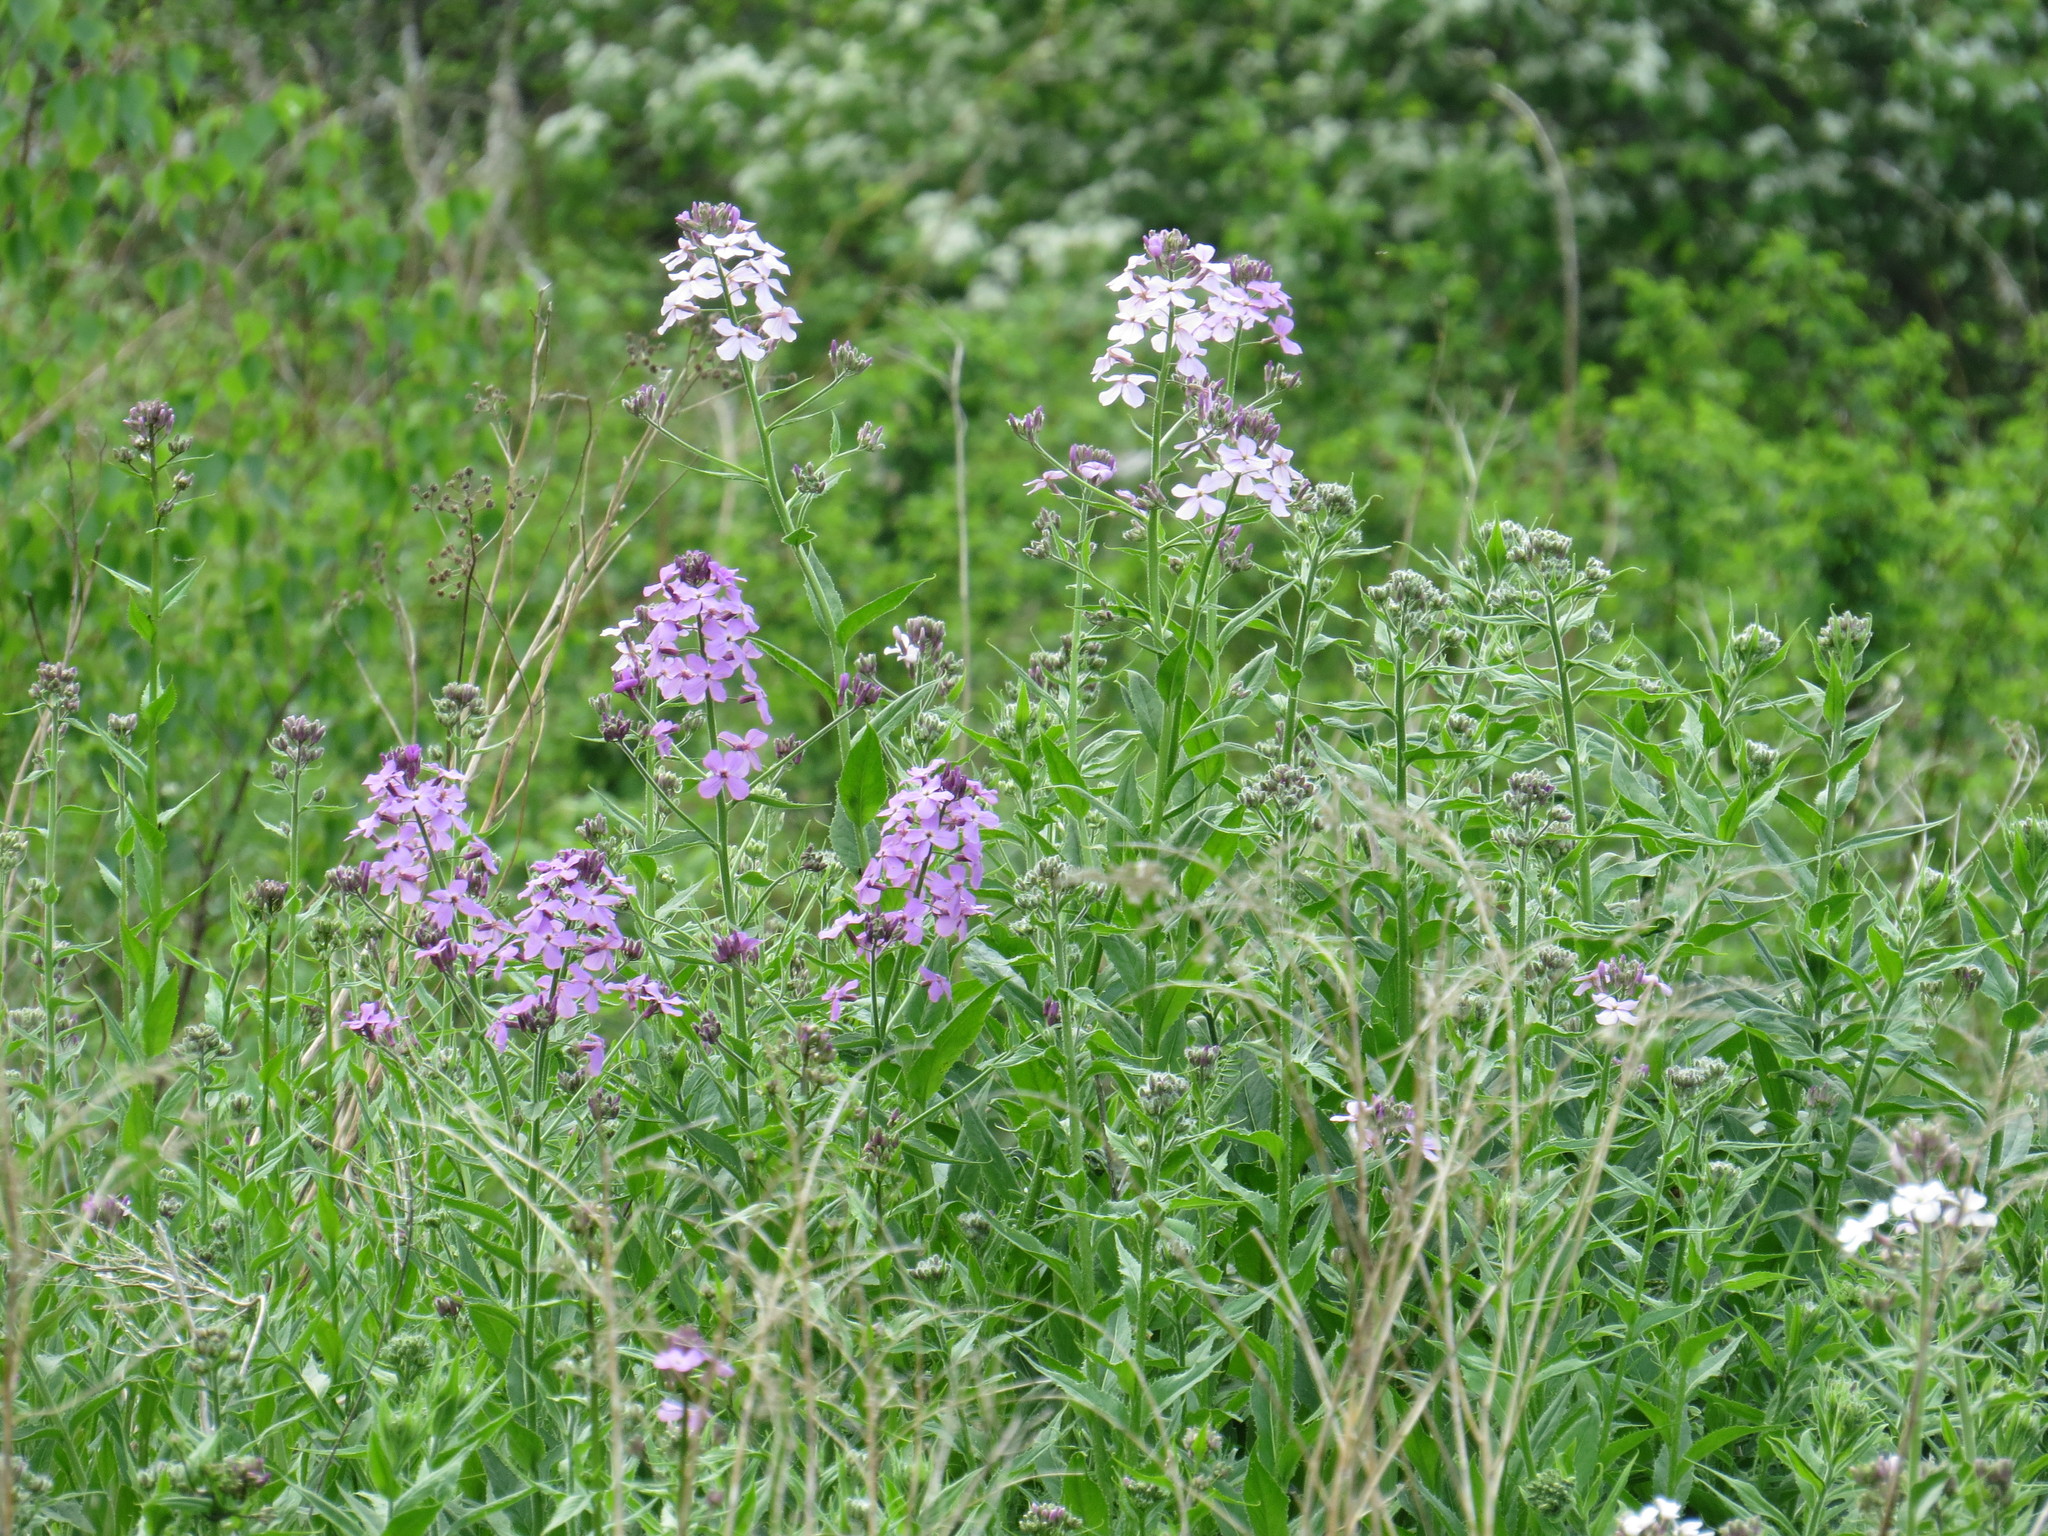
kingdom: Plantae
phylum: Tracheophyta
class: Magnoliopsida
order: Brassicales
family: Brassicaceae
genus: Hesperis
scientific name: Hesperis matronalis
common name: Dame's-violet
